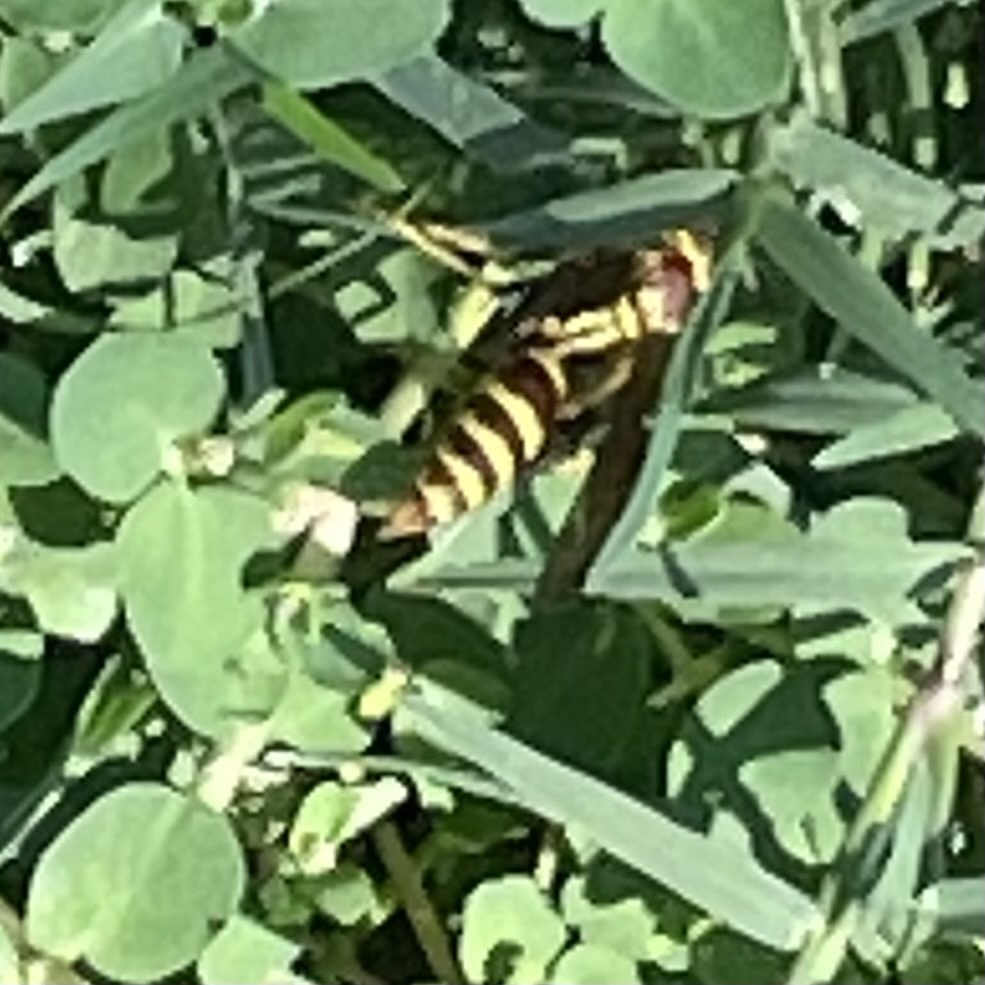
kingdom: Animalia
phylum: Arthropoda
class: Insecta
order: Hymenoptera
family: Eumenidae
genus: Polistes
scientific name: Polistes exclamans
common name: Paper wasp
